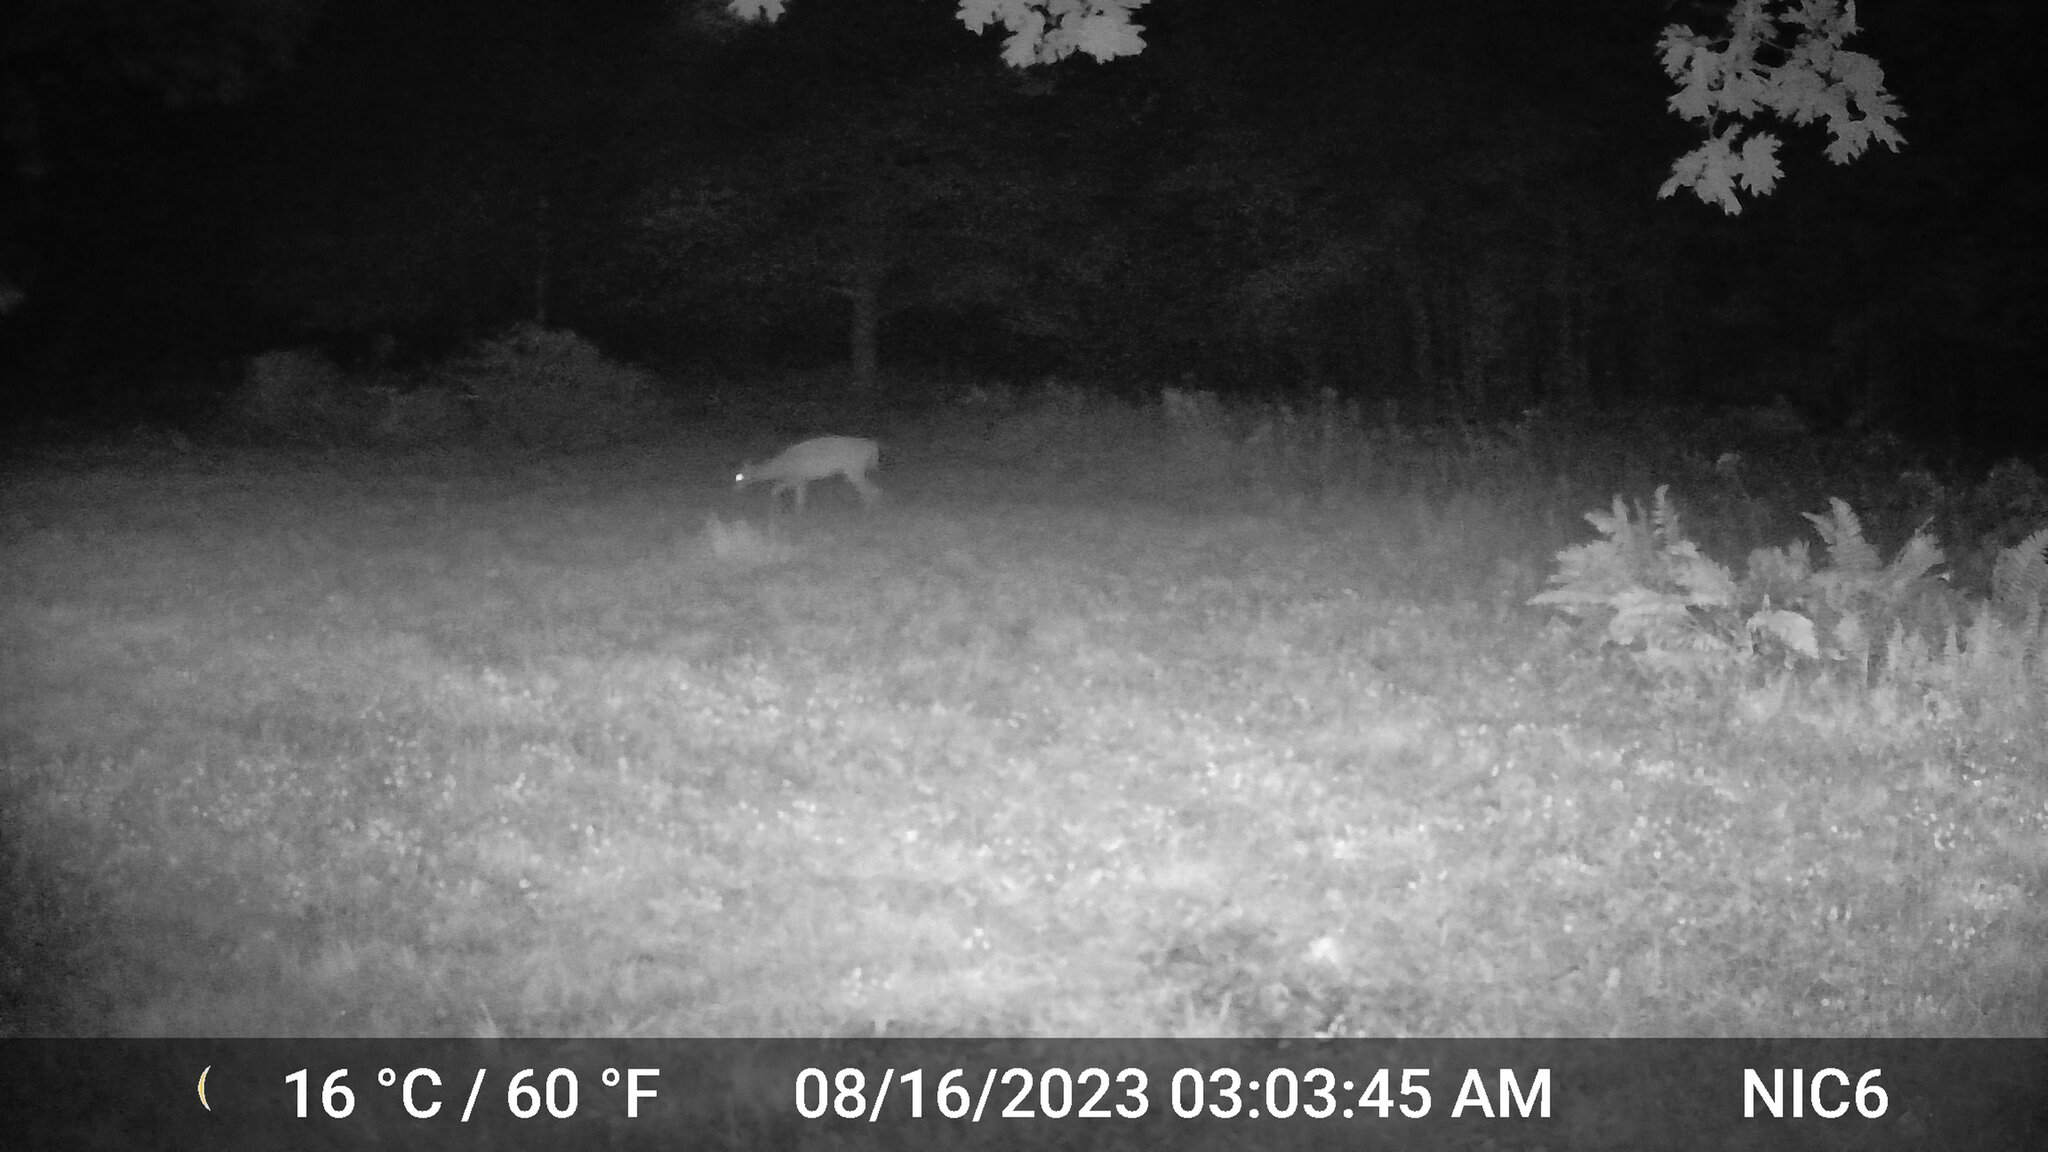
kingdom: Animalia
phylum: Chordata
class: Mammalia
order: Artiodactyla
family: Cervidae
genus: Odocoileus
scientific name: Odocoileus virginianus
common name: White-tailed deer
